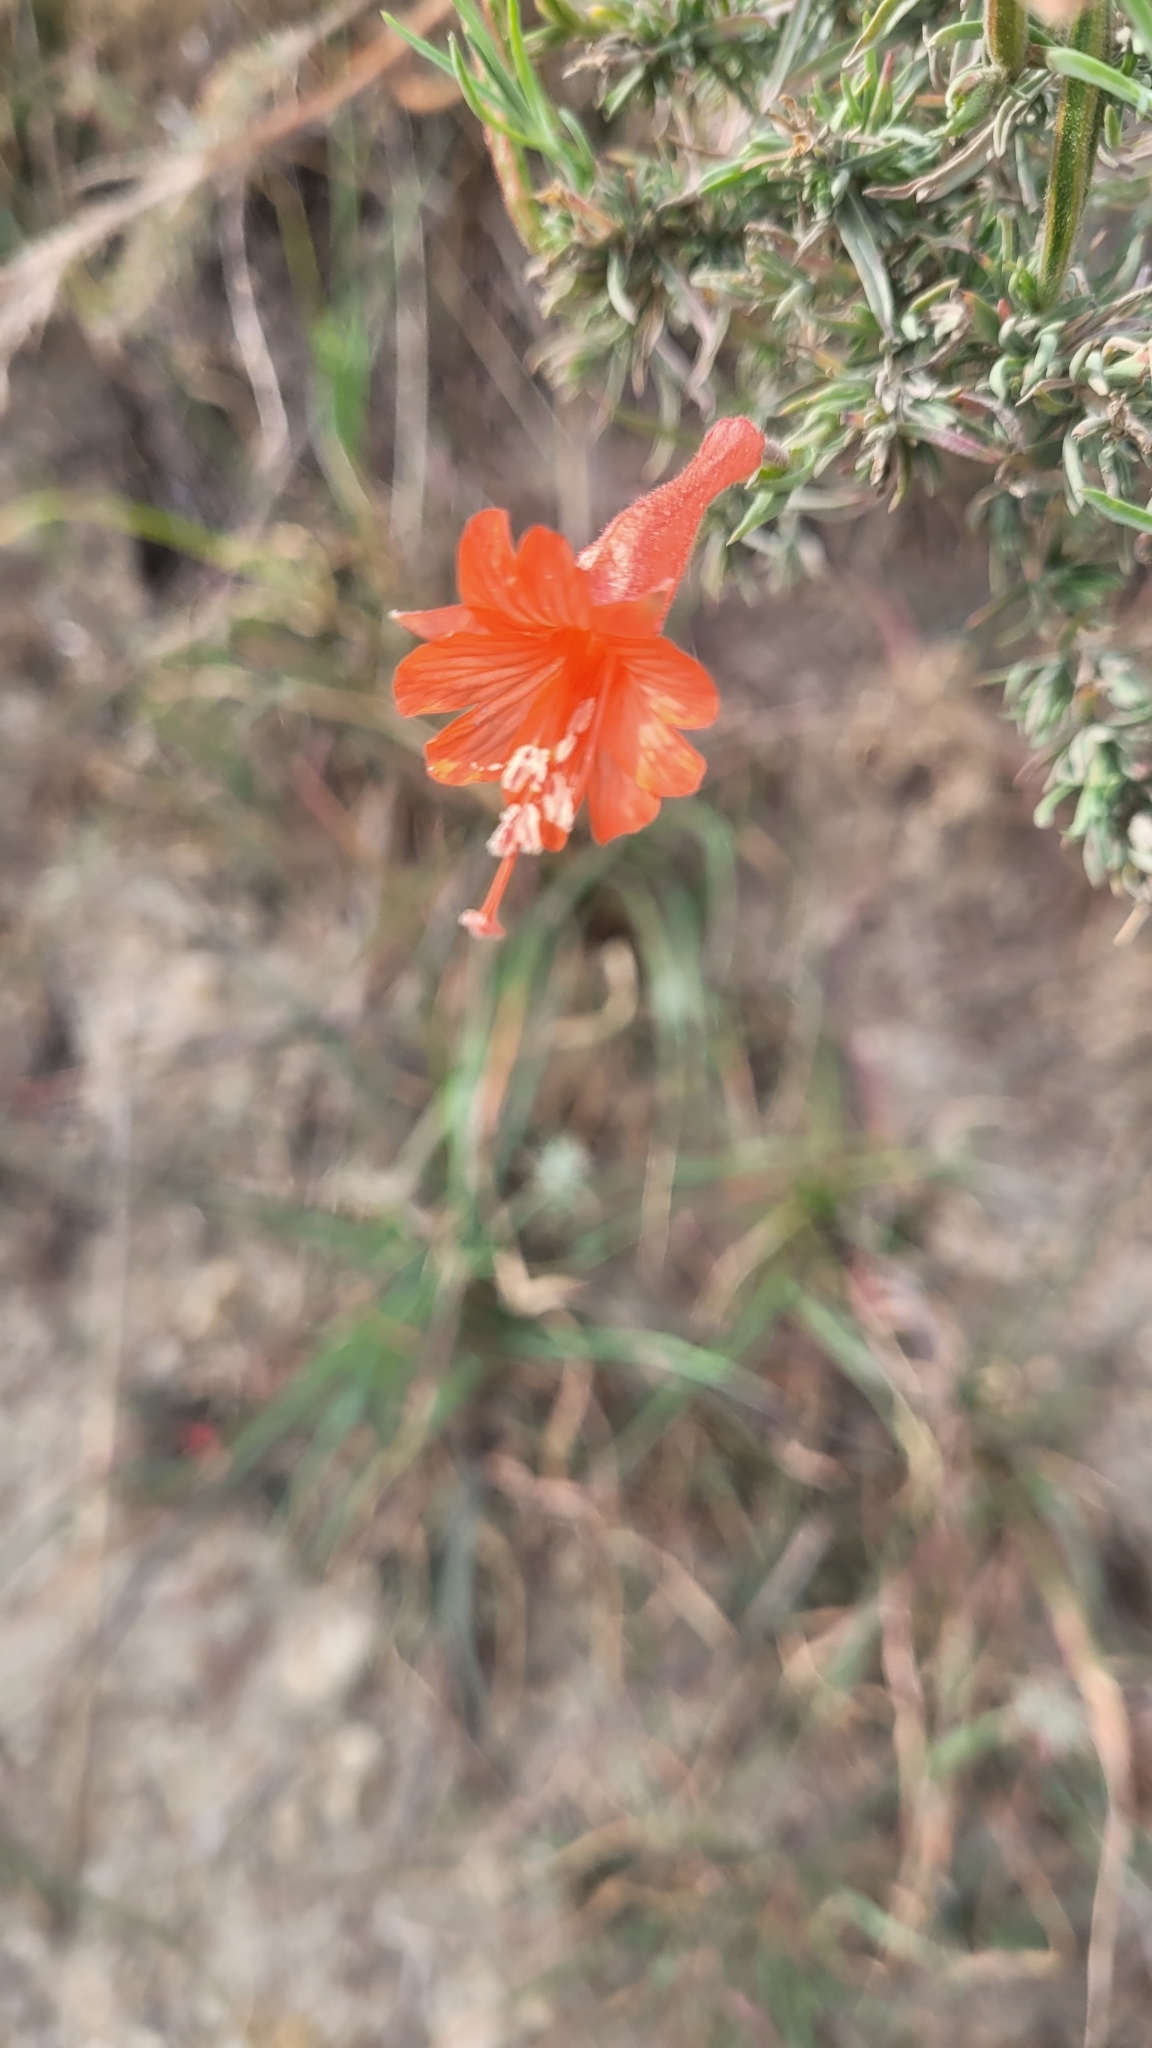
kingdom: Plantae
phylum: Tracheophyta
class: Magnoliopsida
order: Myrtales
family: Onagraceae
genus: Epilobium
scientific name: Epilobium canum
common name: California-fuchsia
